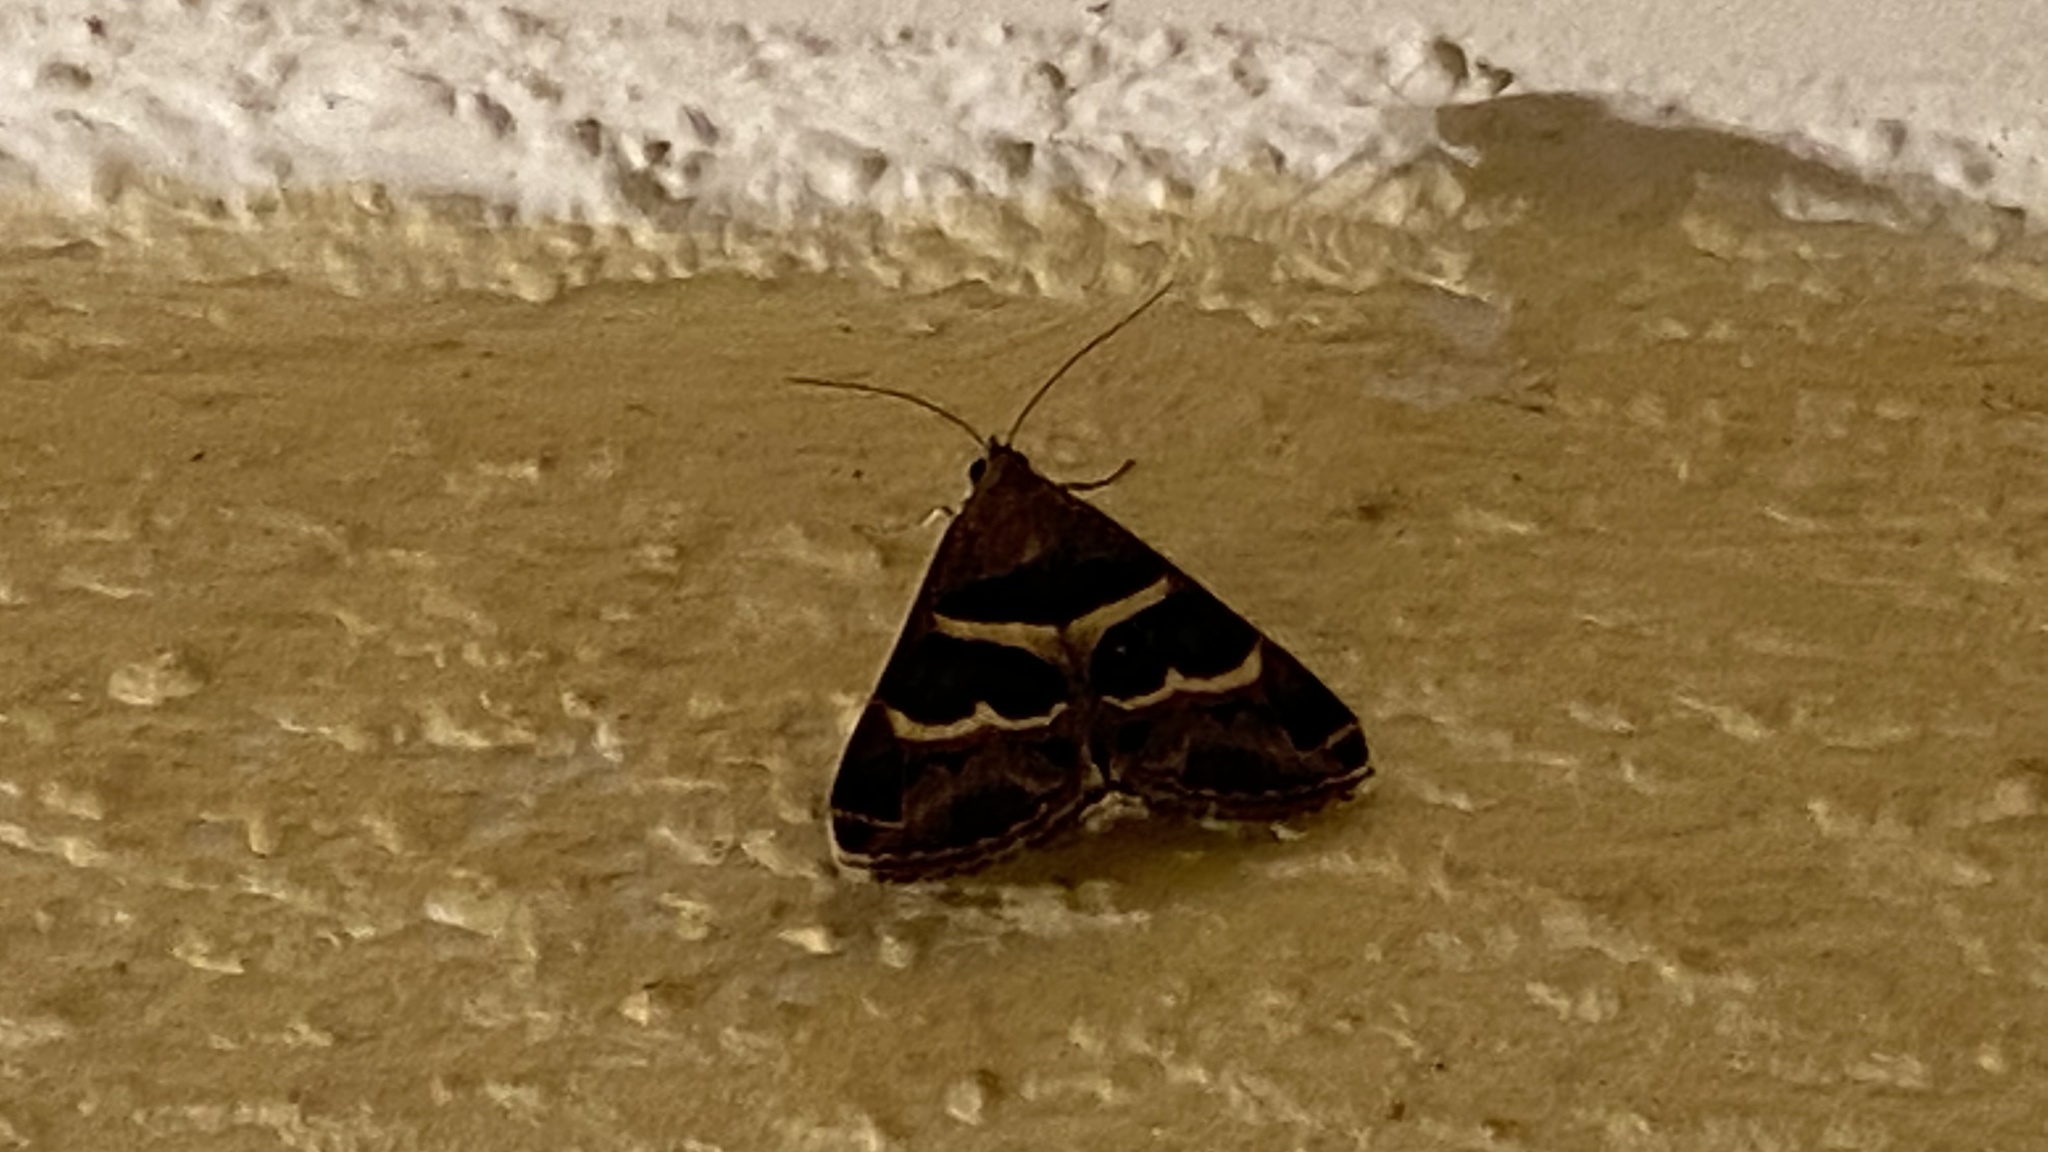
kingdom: Animalia
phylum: Arthropoda
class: Insecta
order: Lepidoptera
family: Erebidae
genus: Grammodes
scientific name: Grammodes stolida
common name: Geometrician
